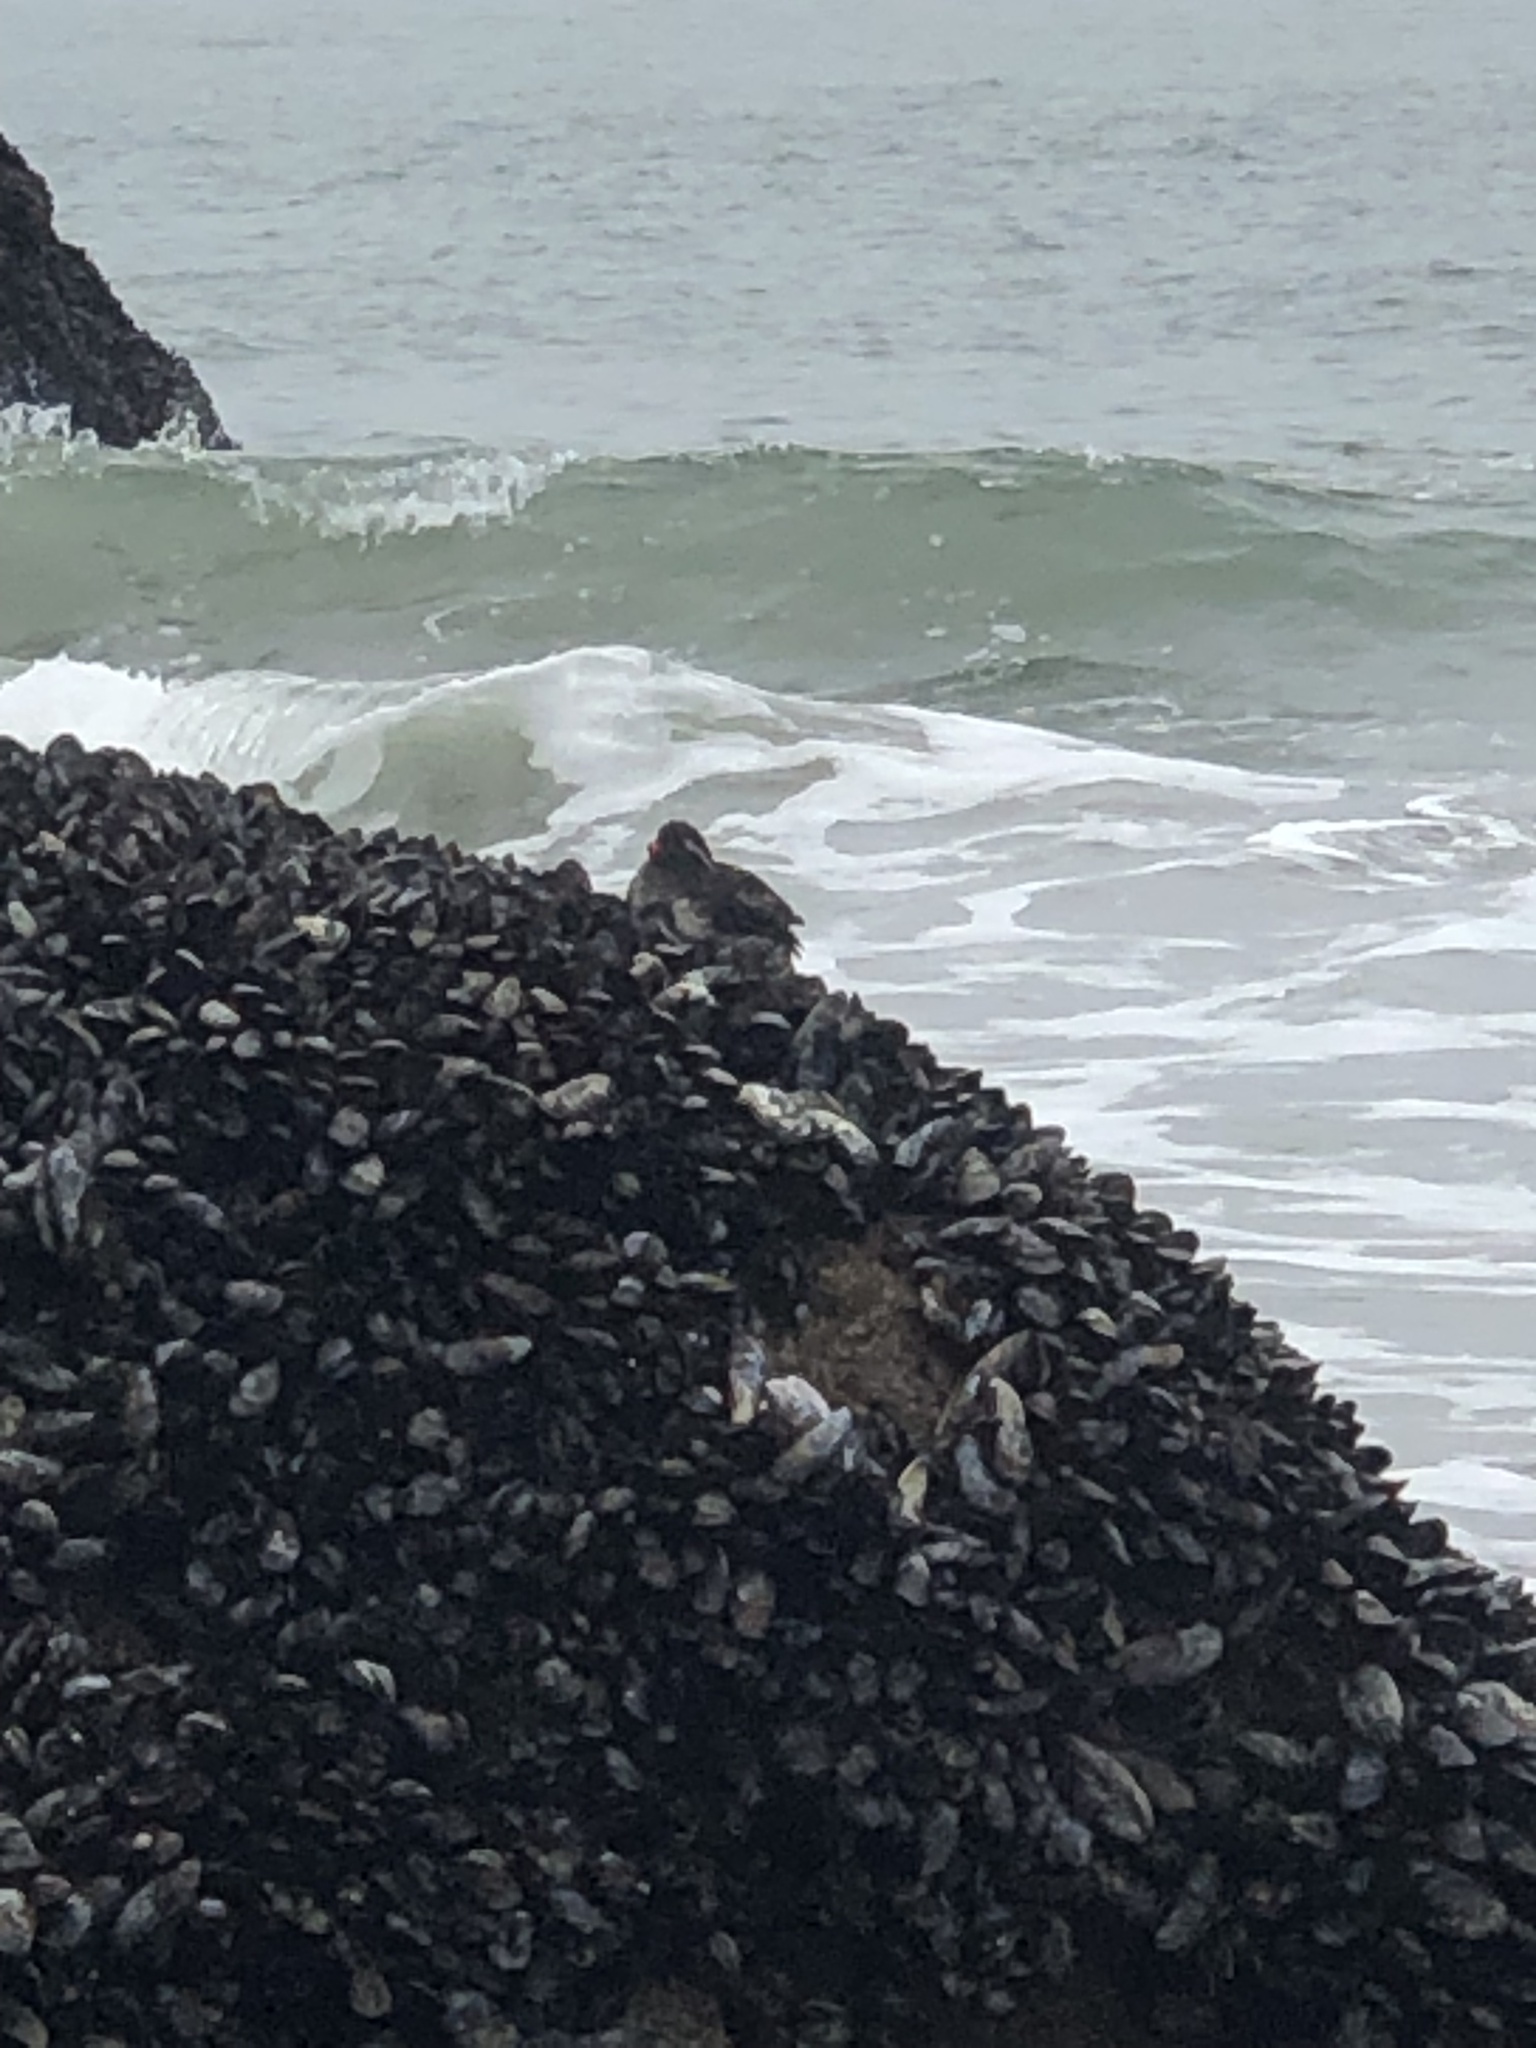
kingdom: Animalia
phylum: Chordata
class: Aves
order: Charadriiformes
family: Alcidae
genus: Aethia
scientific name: Aethia psittacula
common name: Parakeet auklet
